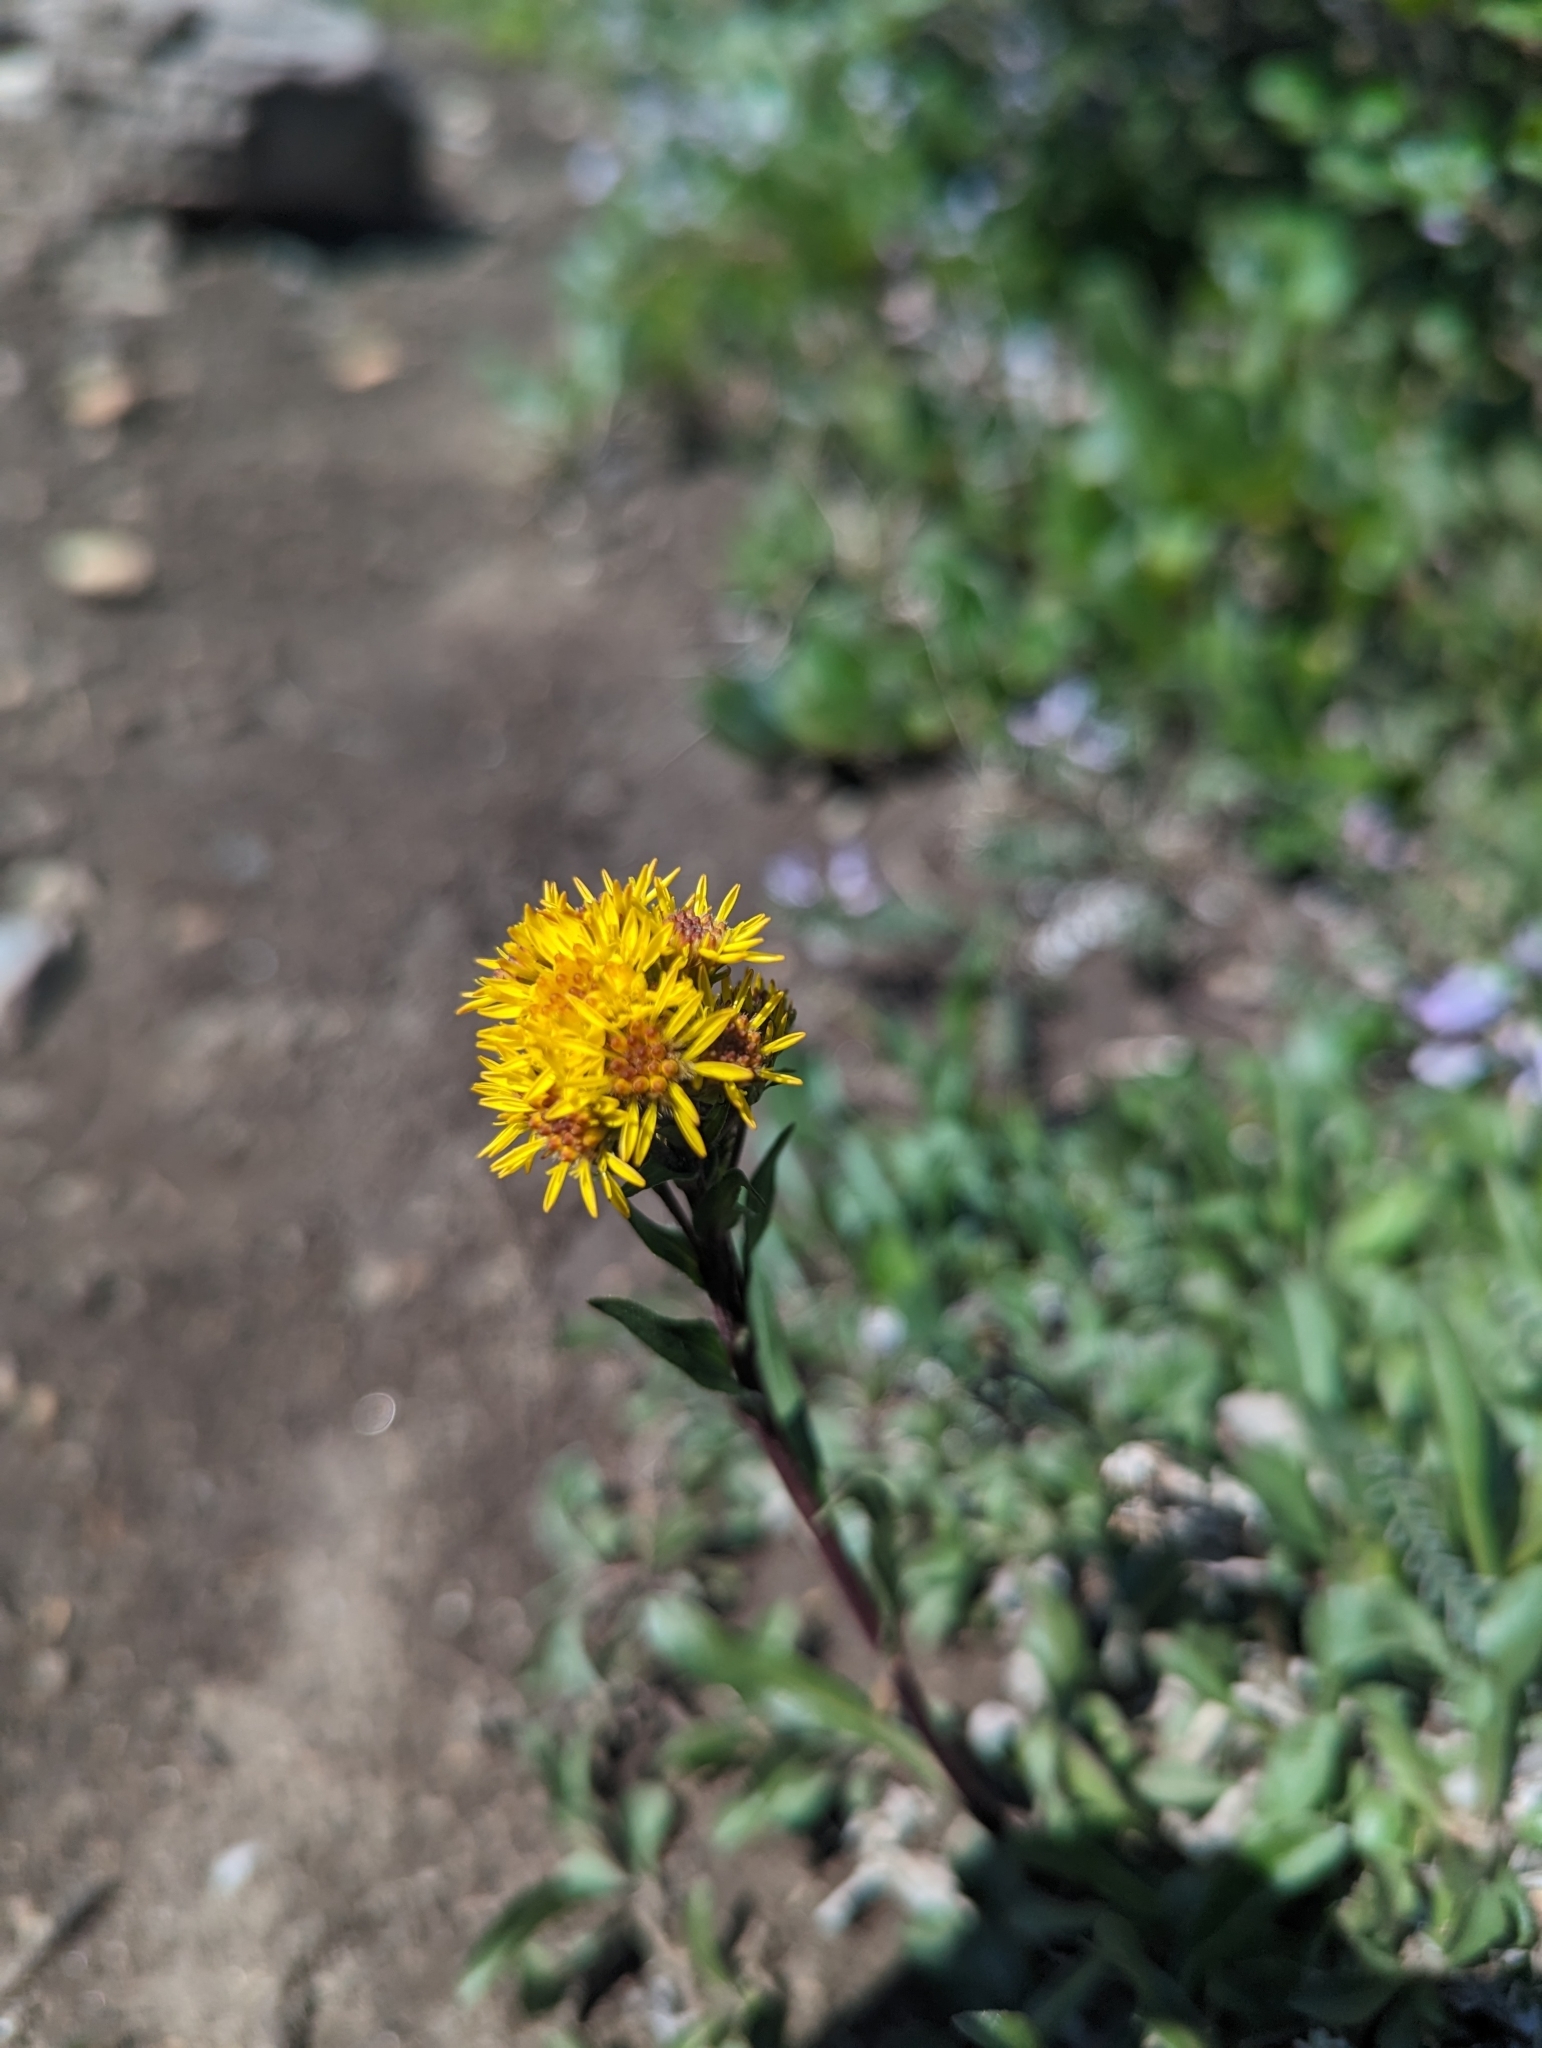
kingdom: Plantae
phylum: Tracheophyta
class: Magnoliopsida
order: Asterales
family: Asteraceae
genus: Solidago
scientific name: Solidago multiradiata
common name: Northern goldenrod
